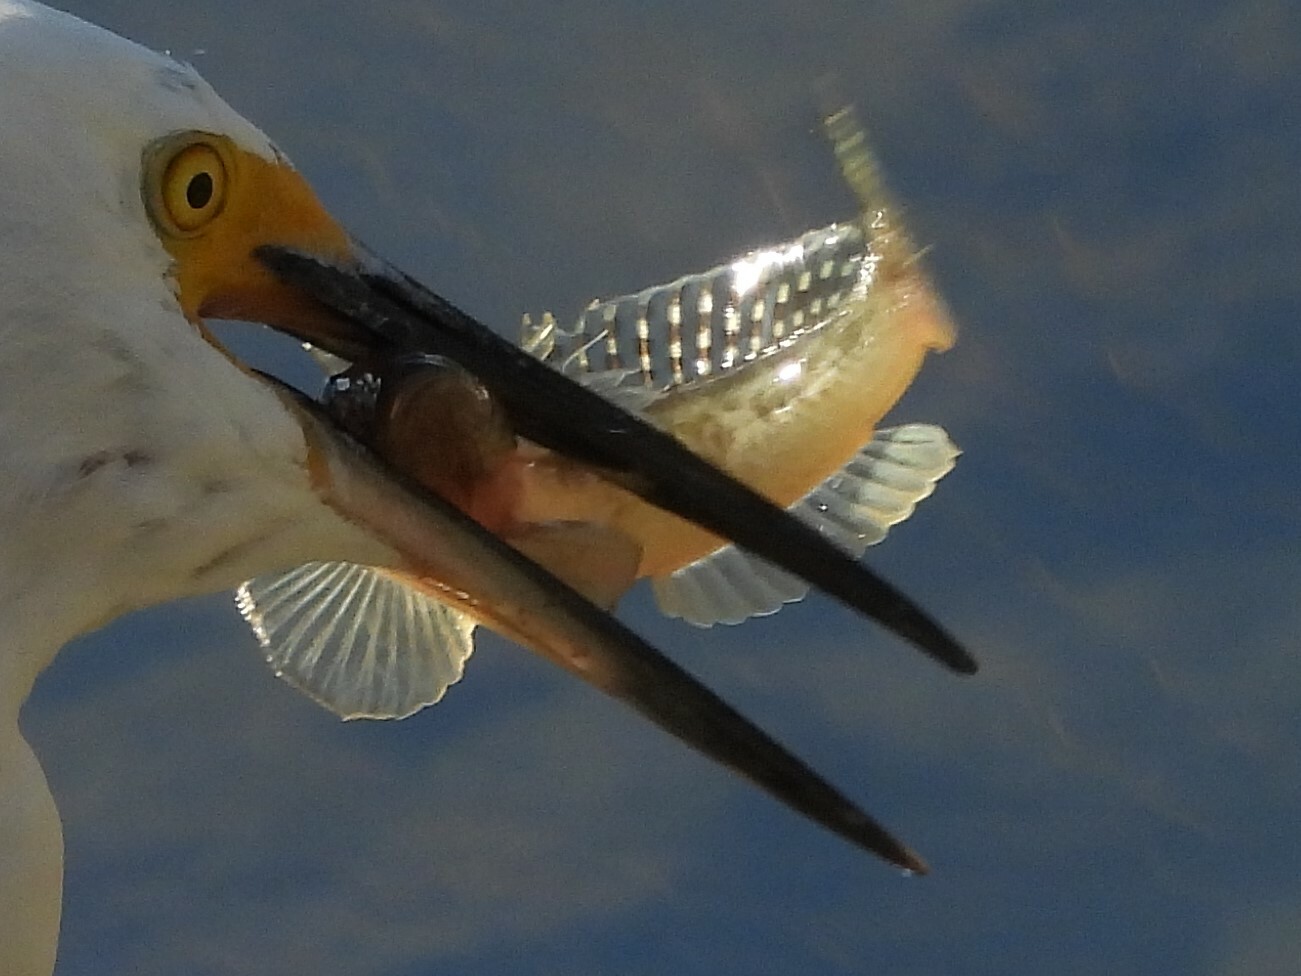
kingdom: Animalia
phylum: Chordata
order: Perciformes
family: Gobiidae
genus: Acanthogobius
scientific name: Acanthogobius flavimanus
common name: Yellowfin goby
